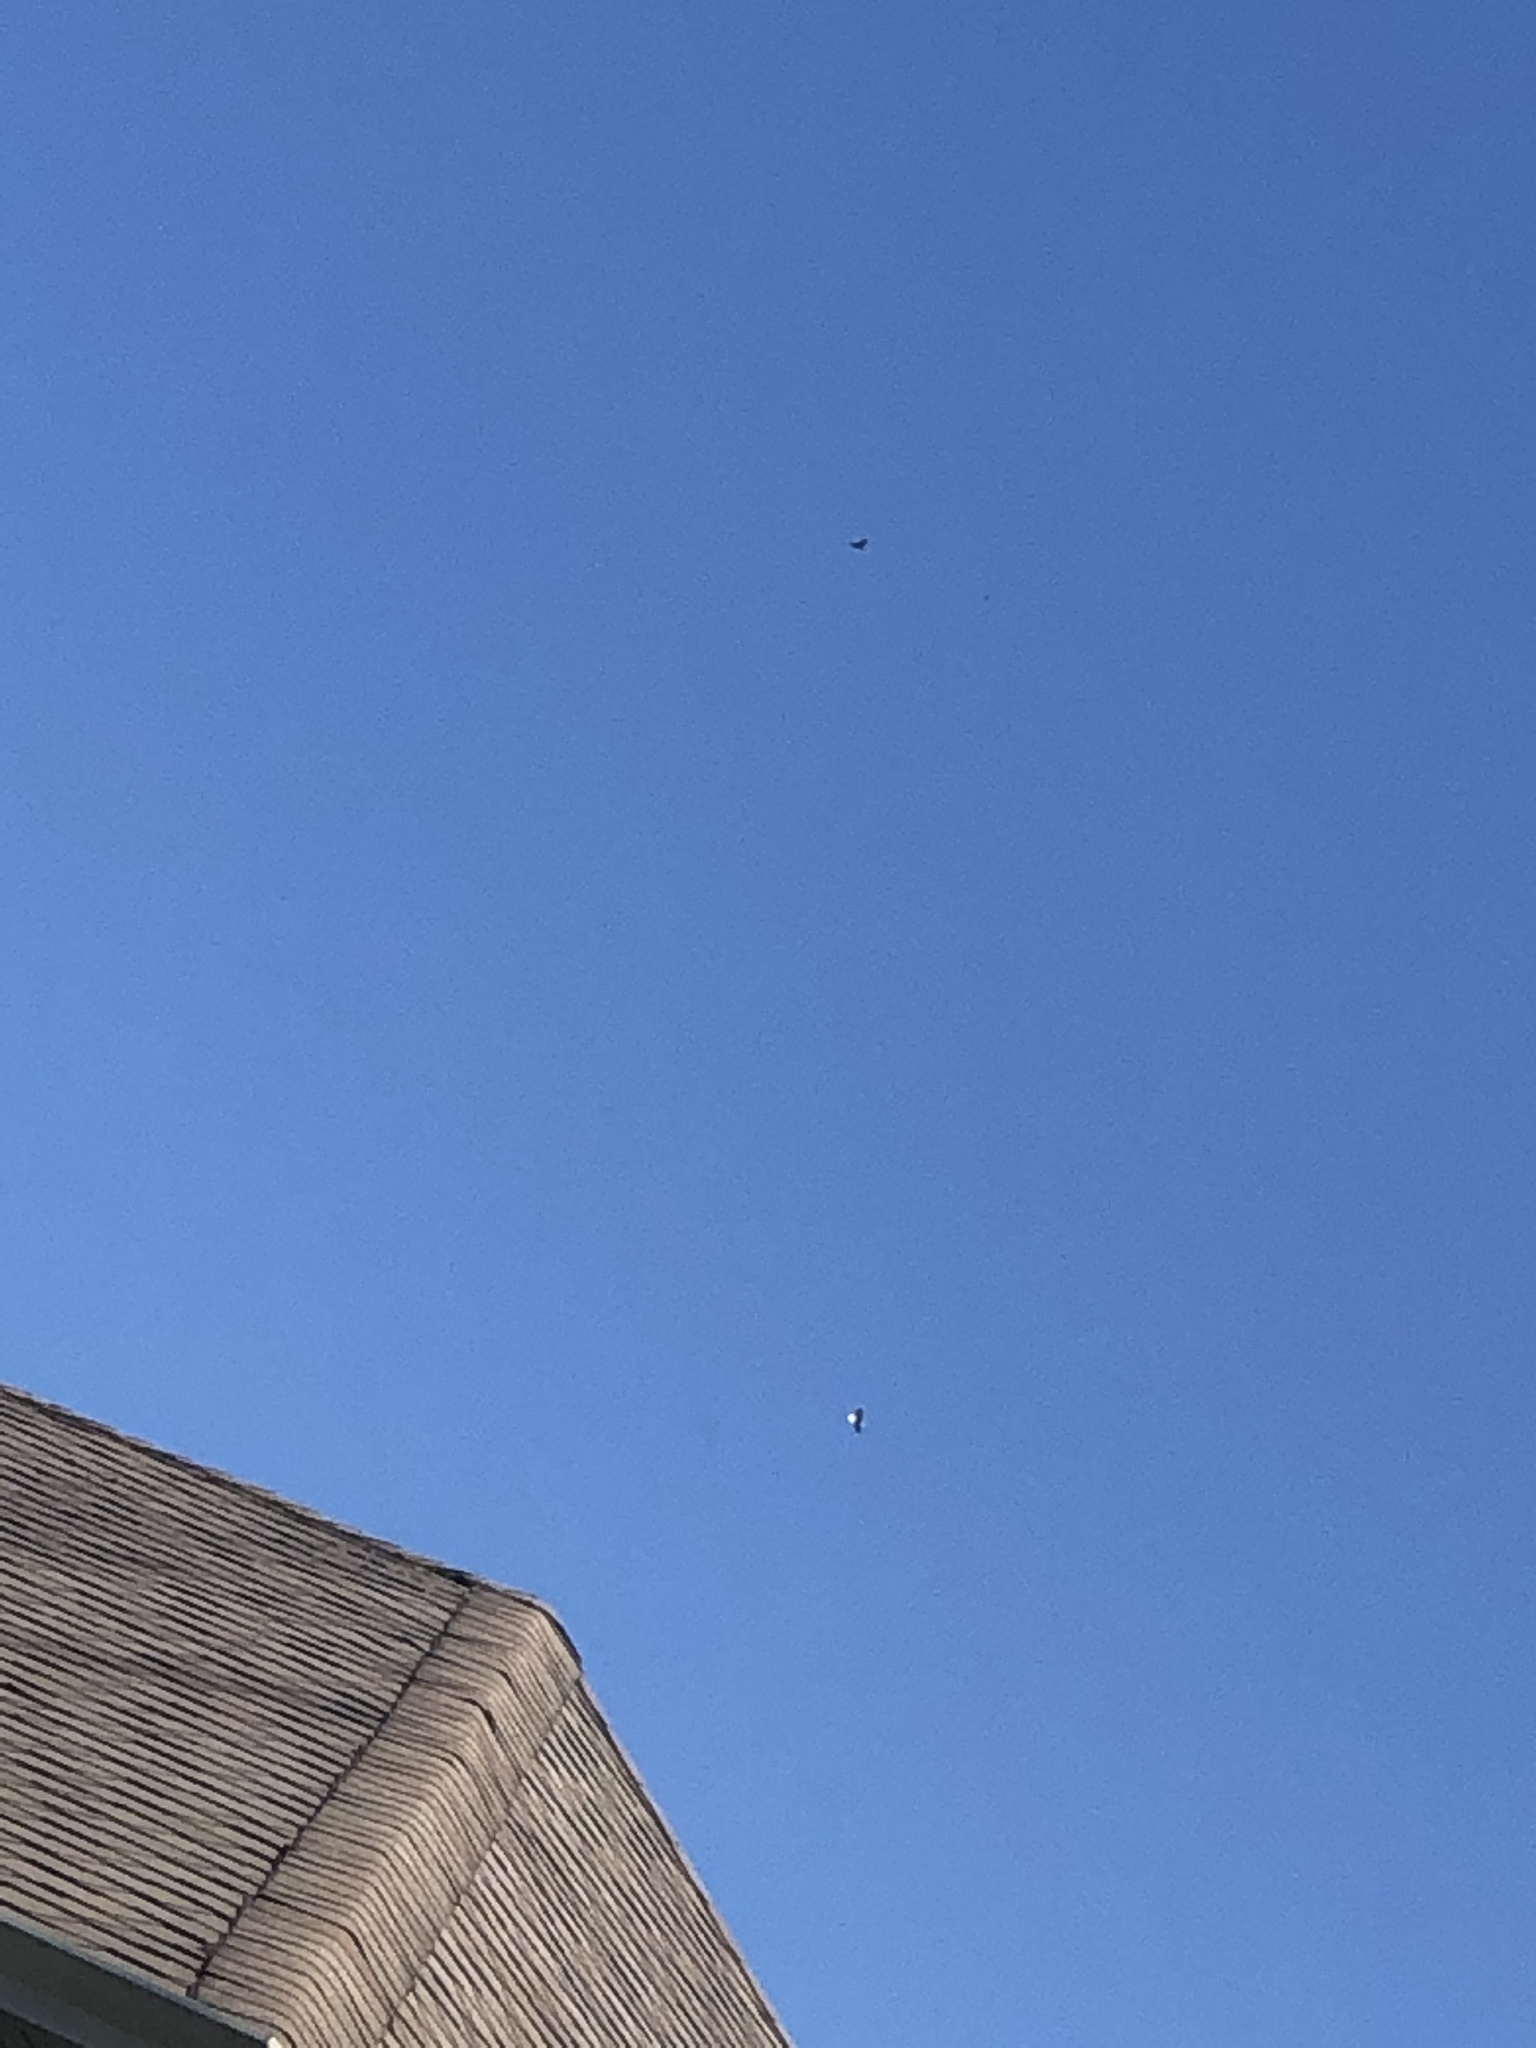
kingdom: Animalia
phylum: Chordata
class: Aves
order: Accipitriformes
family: Accipitridae
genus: Haliaeetus
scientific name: Haliaeetus leucocephalus
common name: Bald eagle
